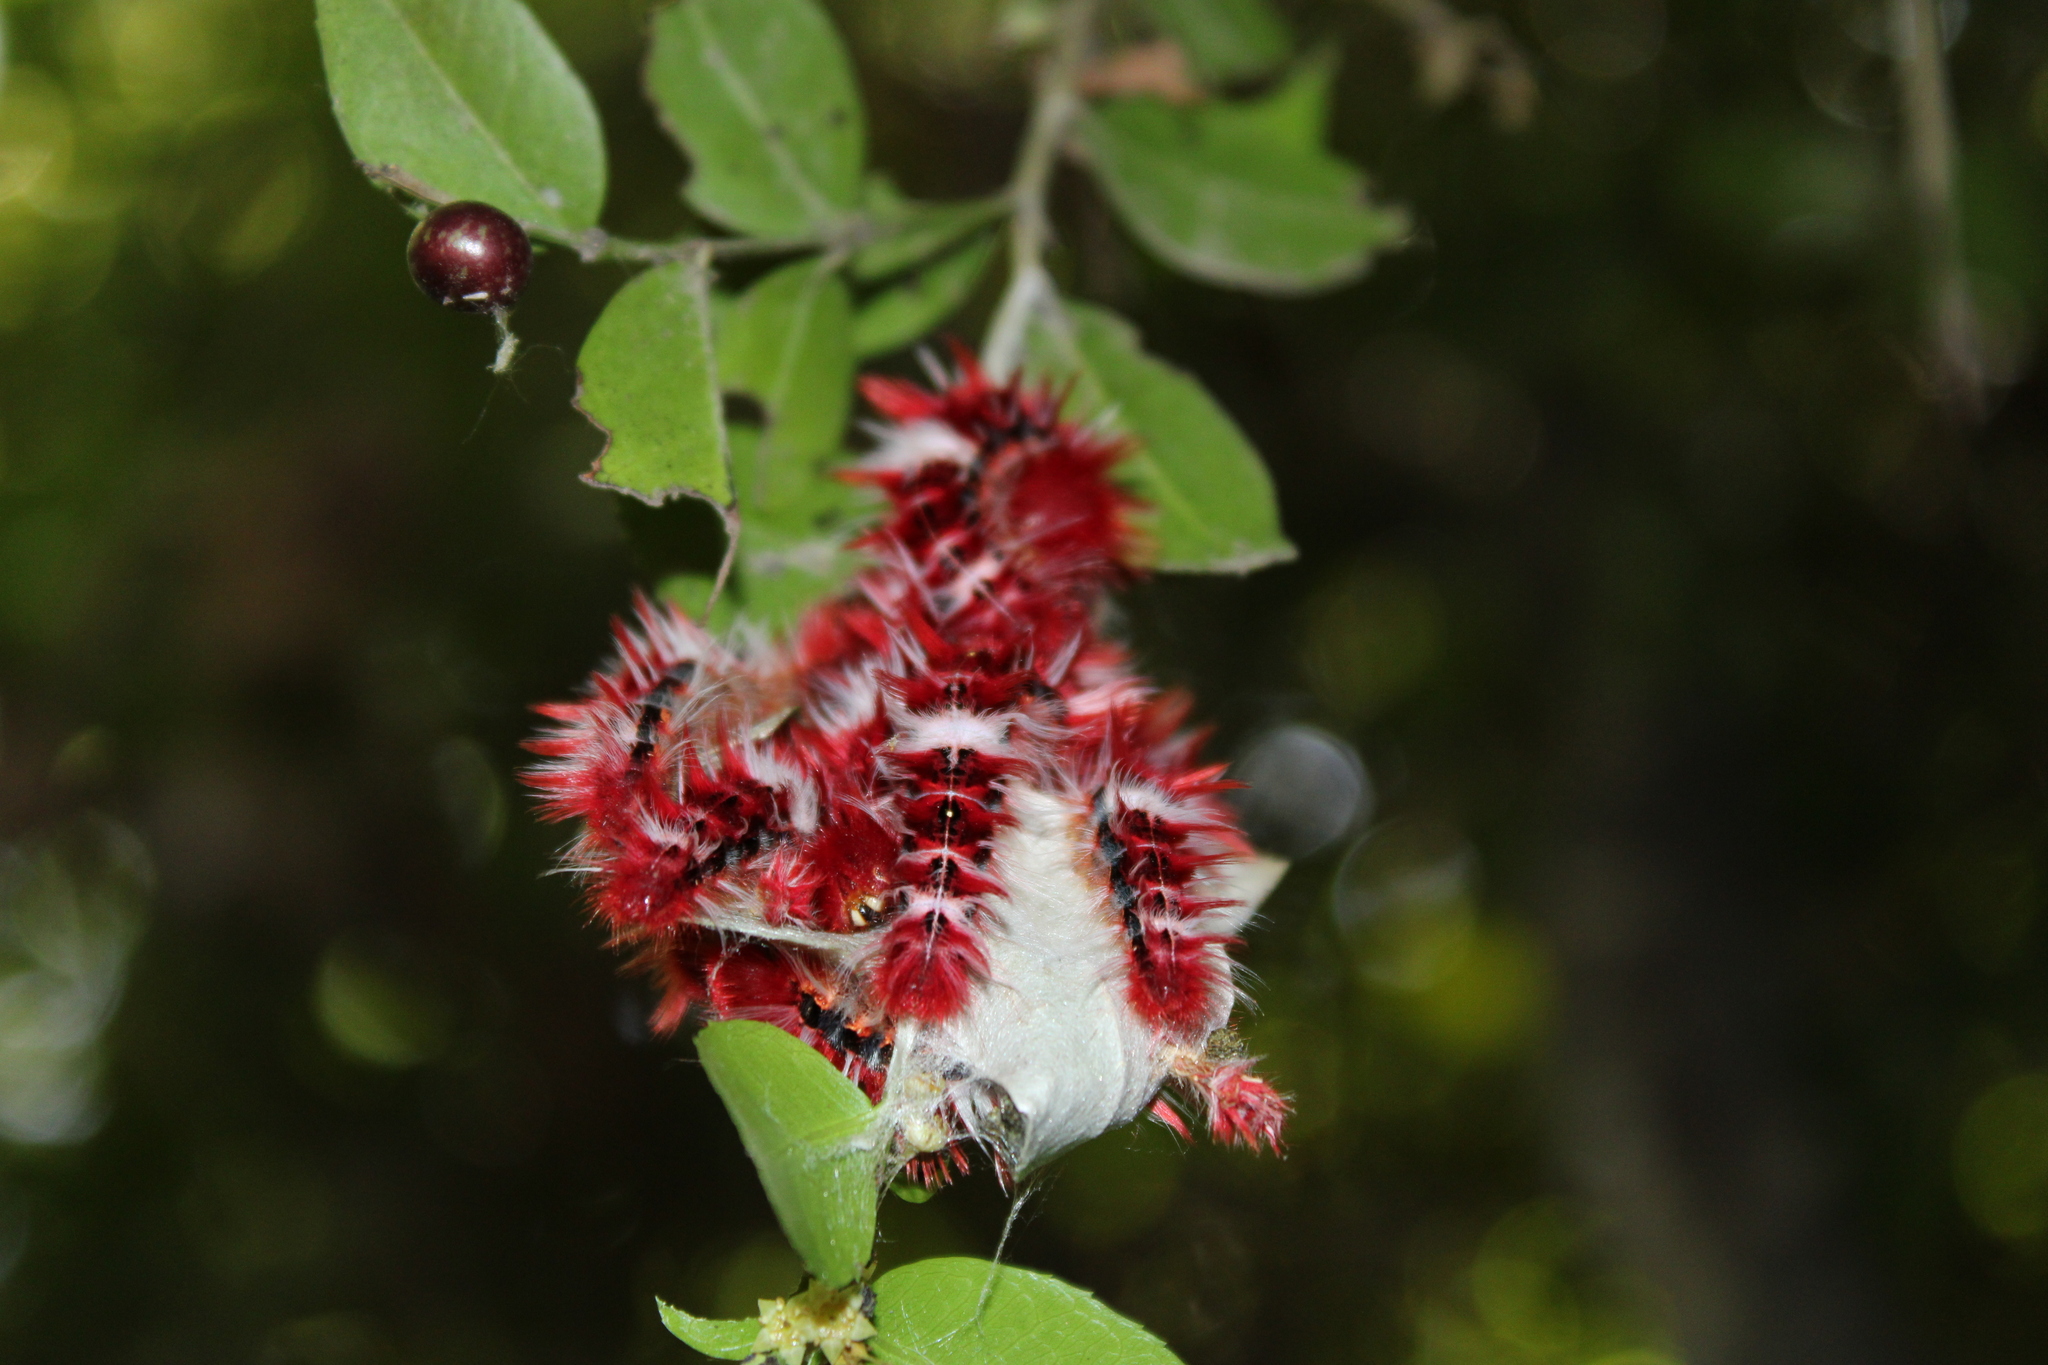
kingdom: Animalia
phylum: Arthropoda
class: Insecta
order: Lepidoptera
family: Nymphalidae
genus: Morpho
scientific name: Morpho epistrophus
